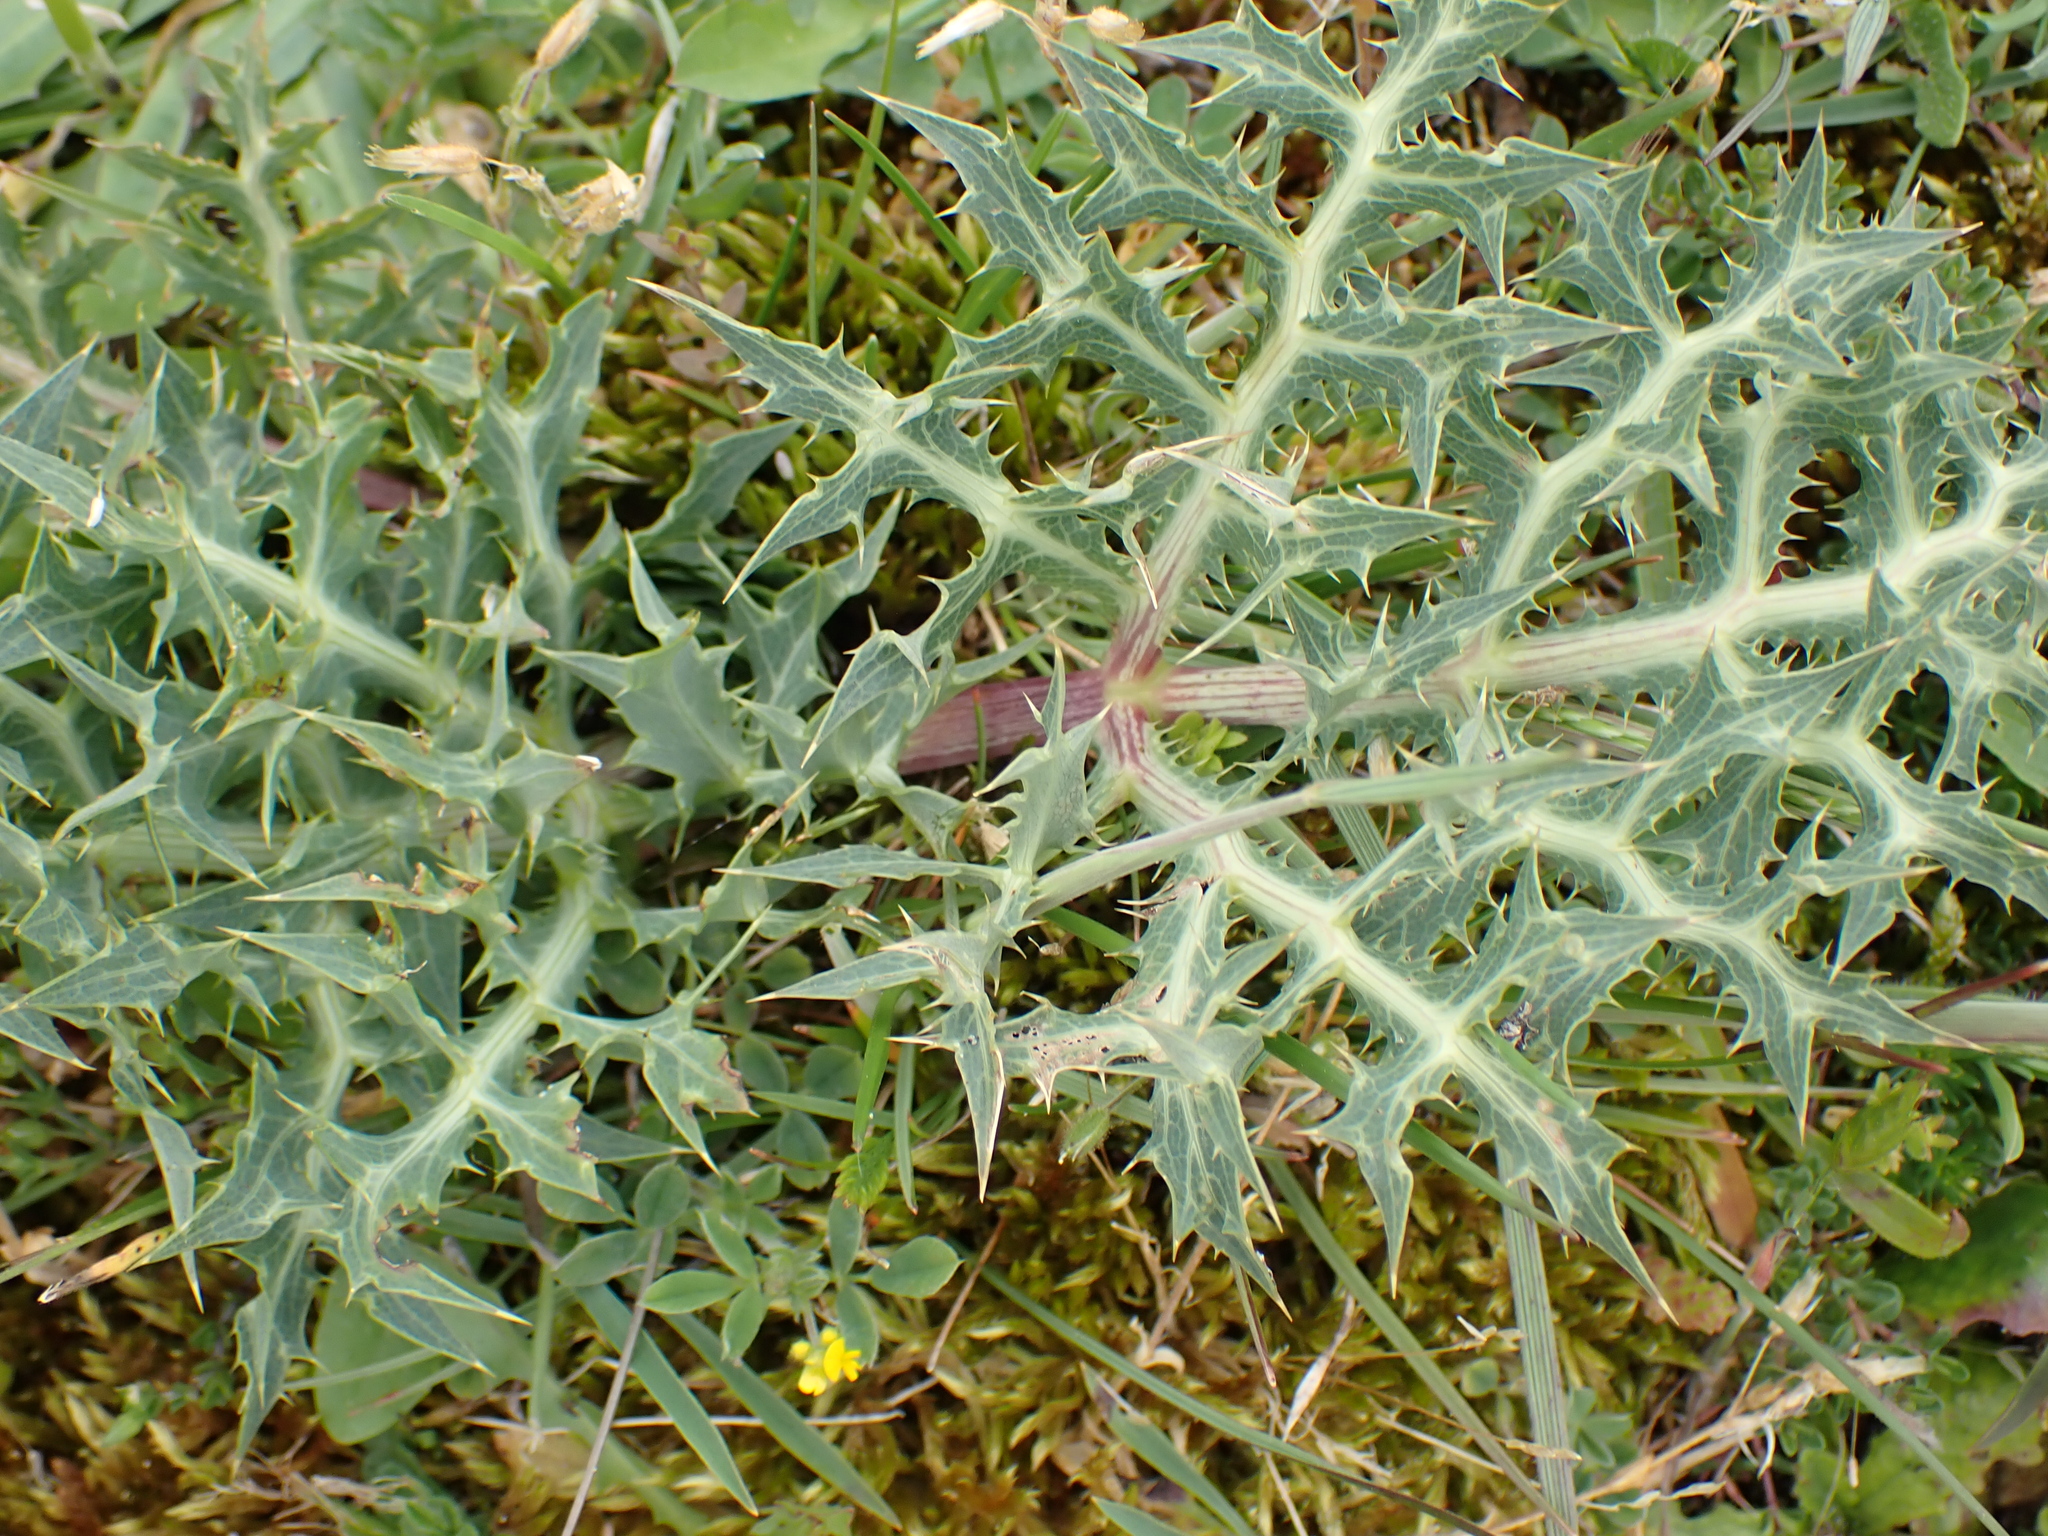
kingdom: Plantae
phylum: Tracheophyta
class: Magnoliopsida
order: Apiales
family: Apiaceae
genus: Eryngium
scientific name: Eryngium campestre
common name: Field eryngo
